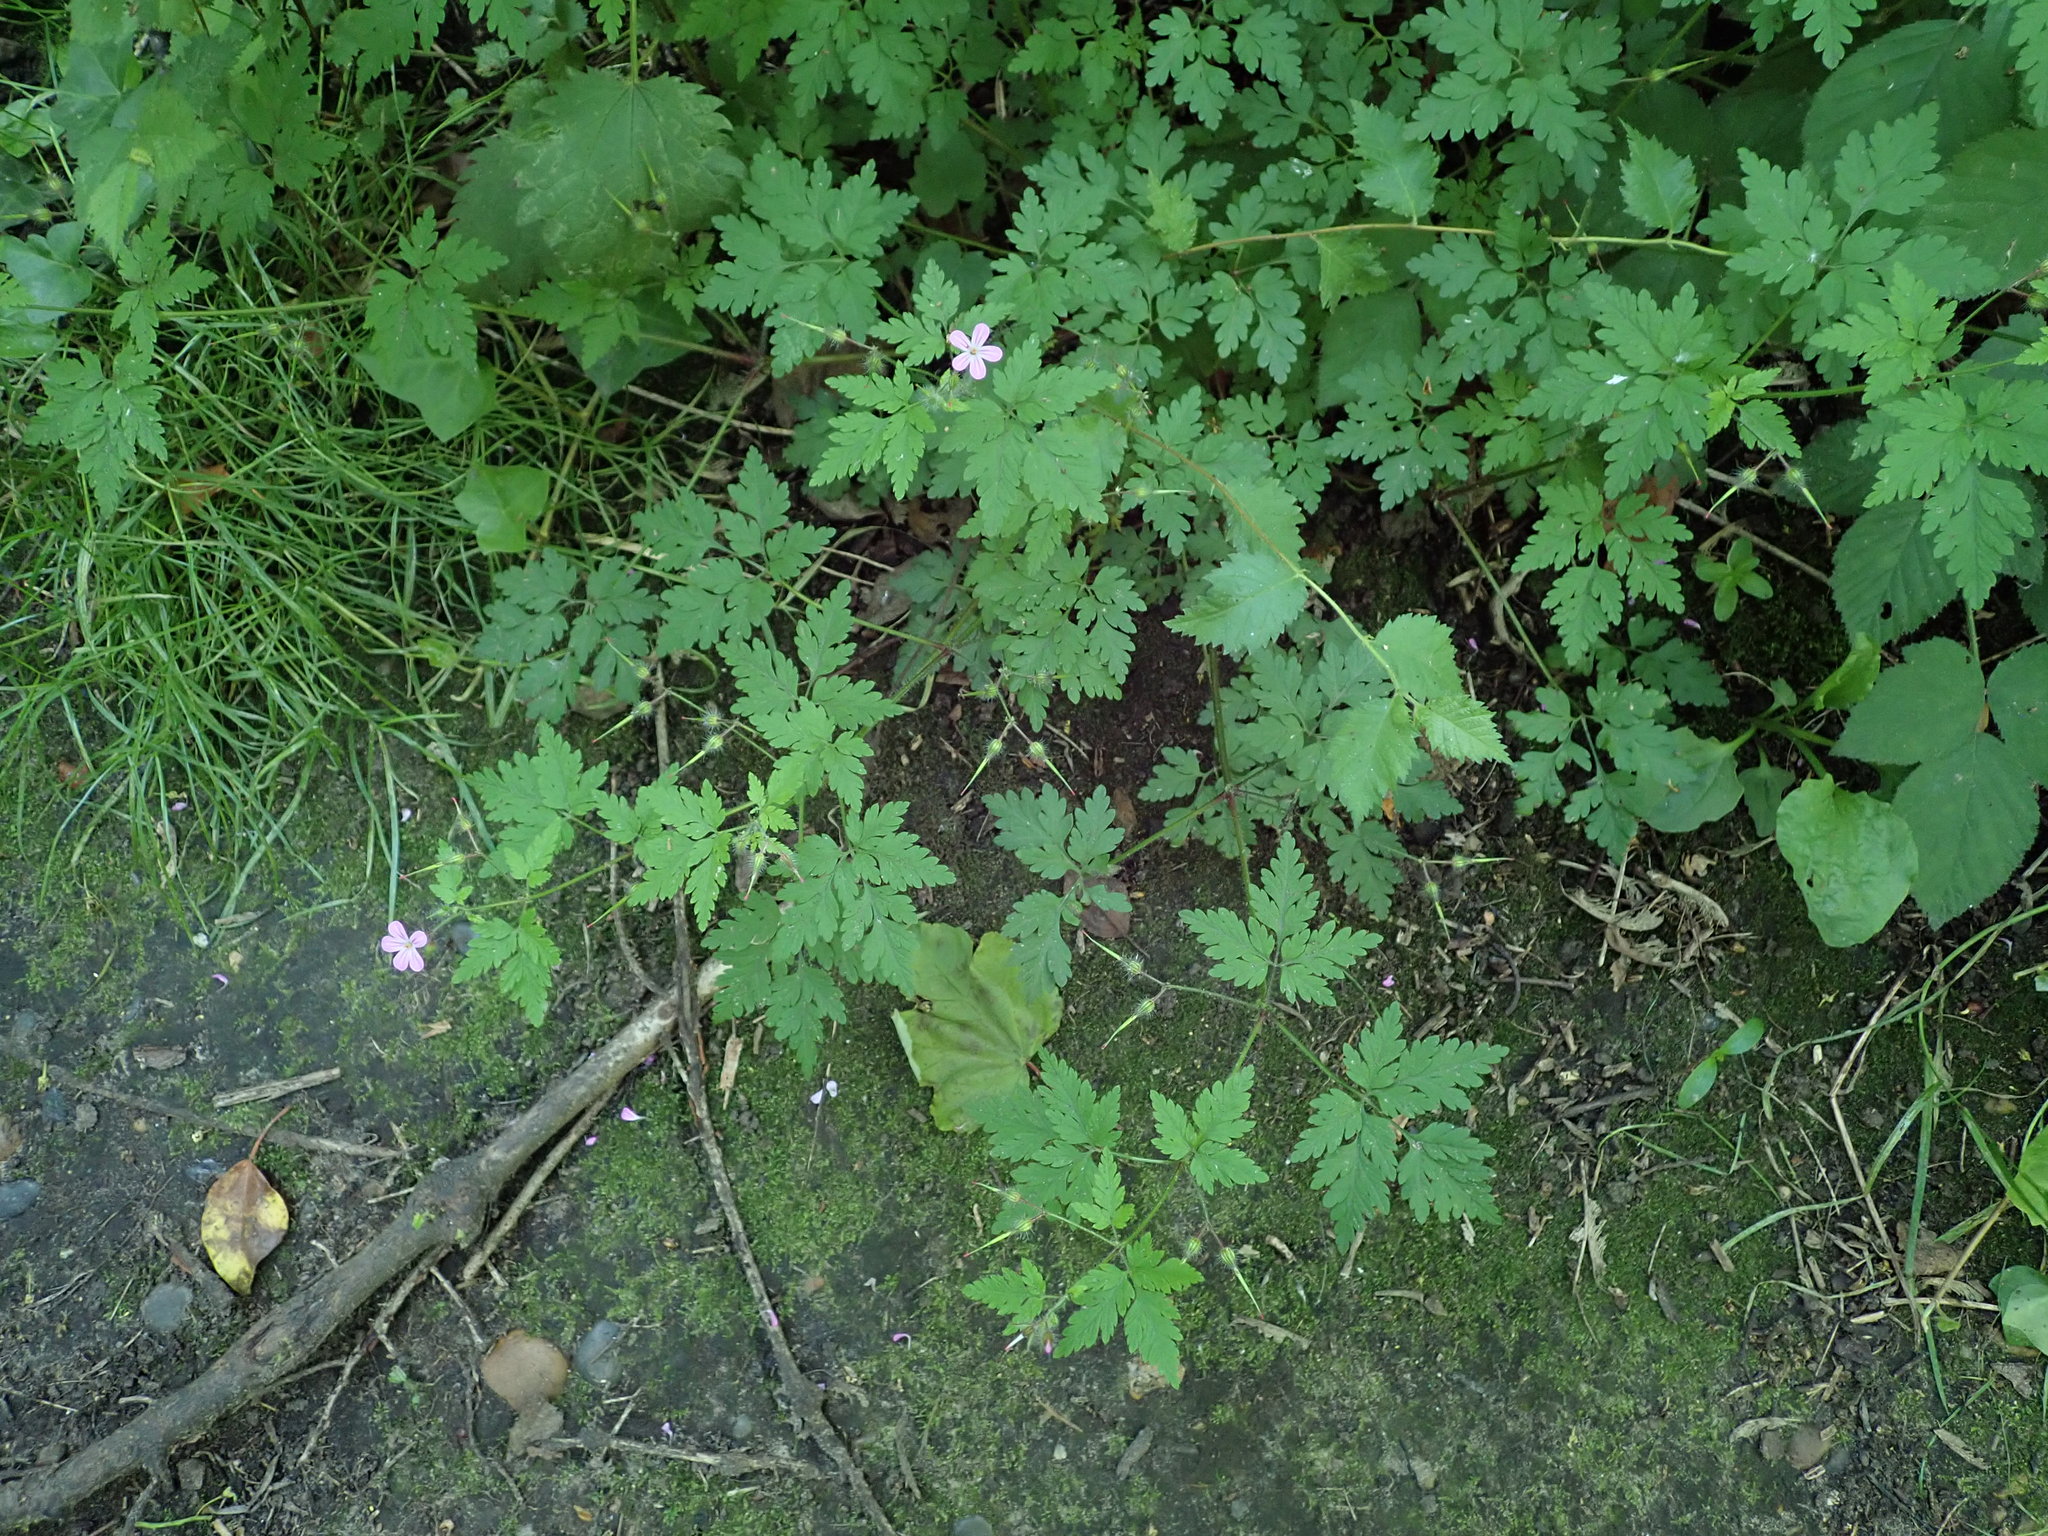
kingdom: Plantae
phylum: Tracheophyta
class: Magnoliopsida
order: Geraniales
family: Geraniaceae
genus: Geranium
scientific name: Geranium robertianum
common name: Herb-robert
